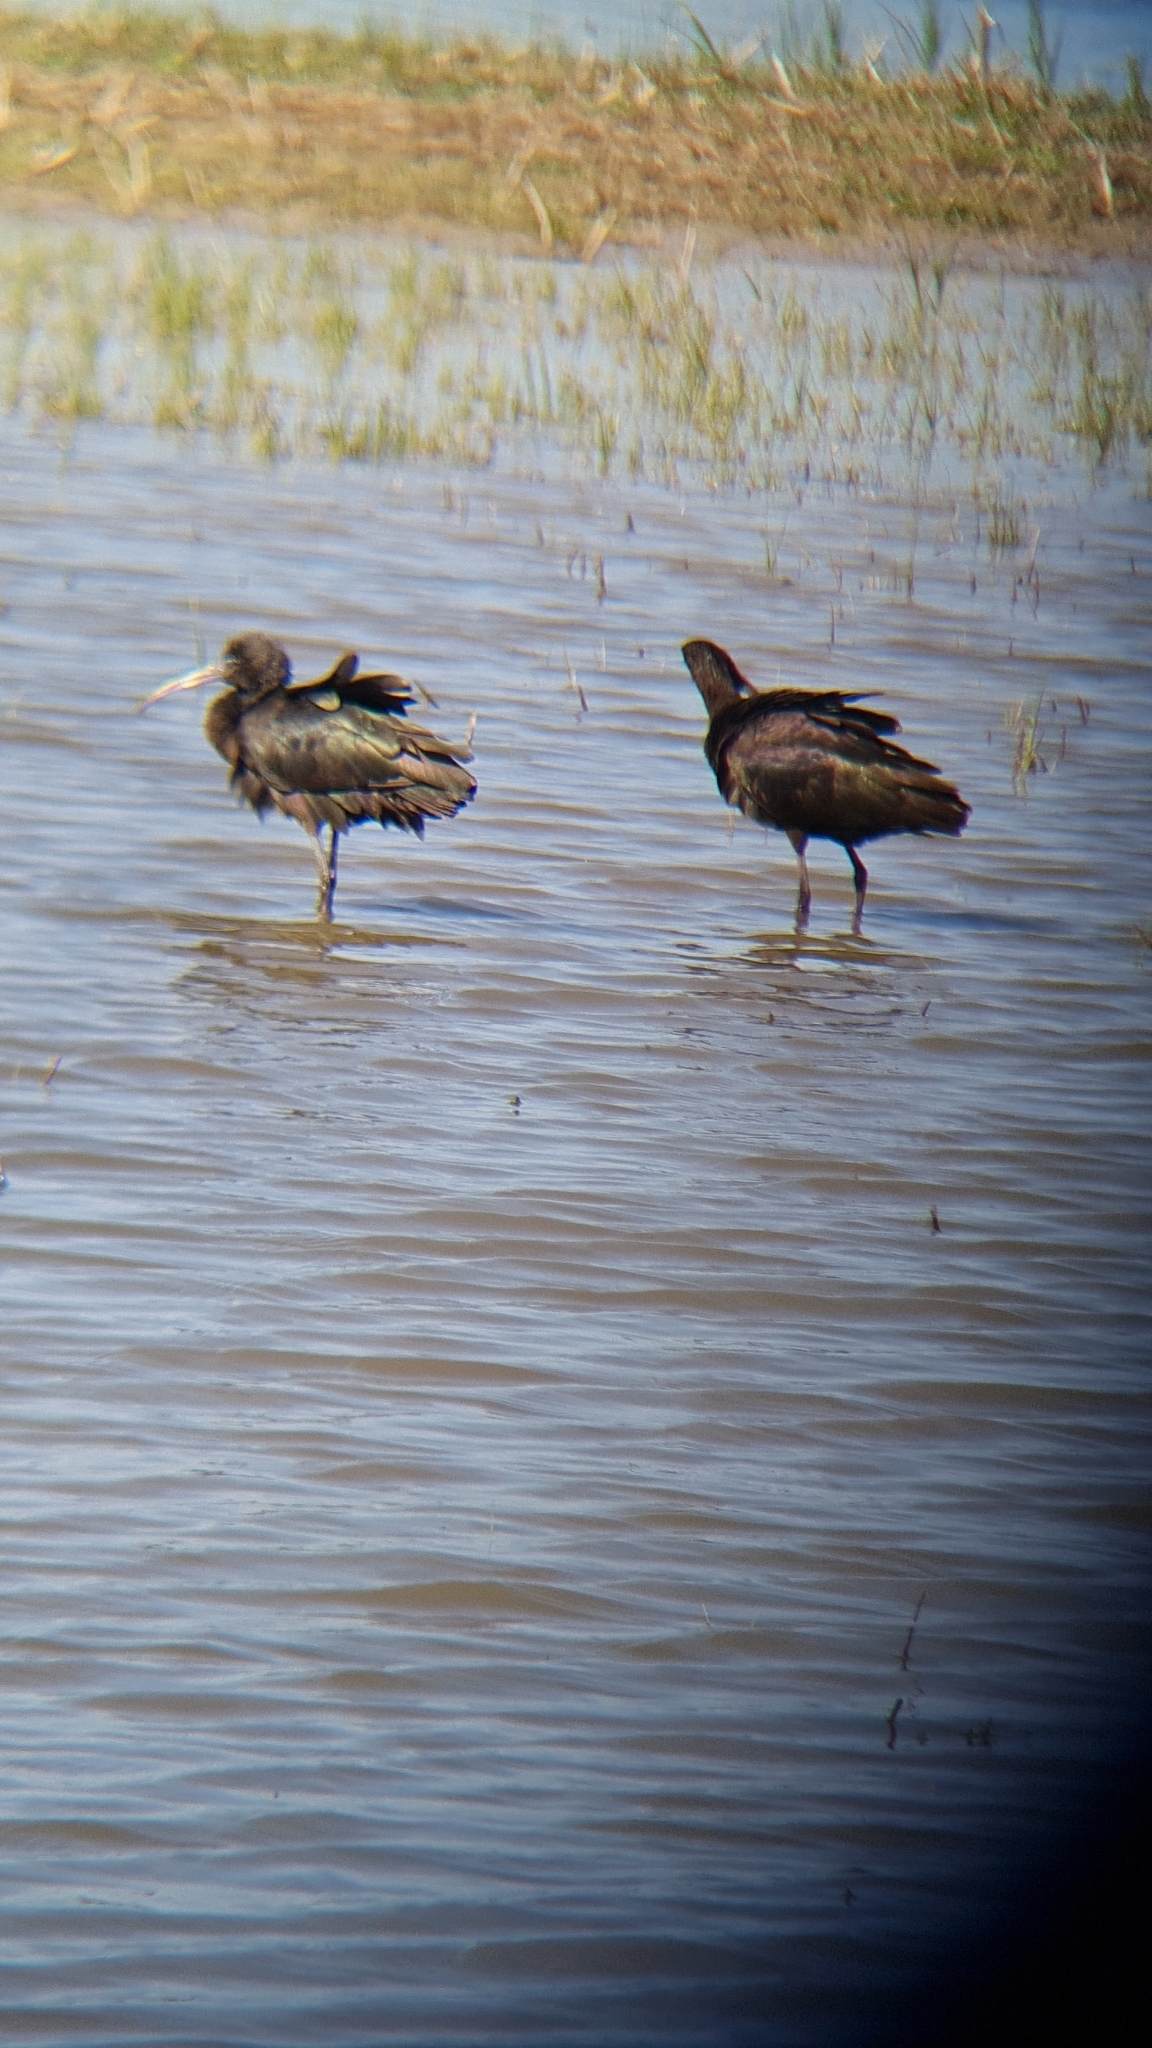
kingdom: Animalia
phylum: Chordata
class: Aves
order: Pelecaniformes
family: Threskiornithidae
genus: Plegadis
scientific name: Plegadis falcinellus
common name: Glossy ibis
